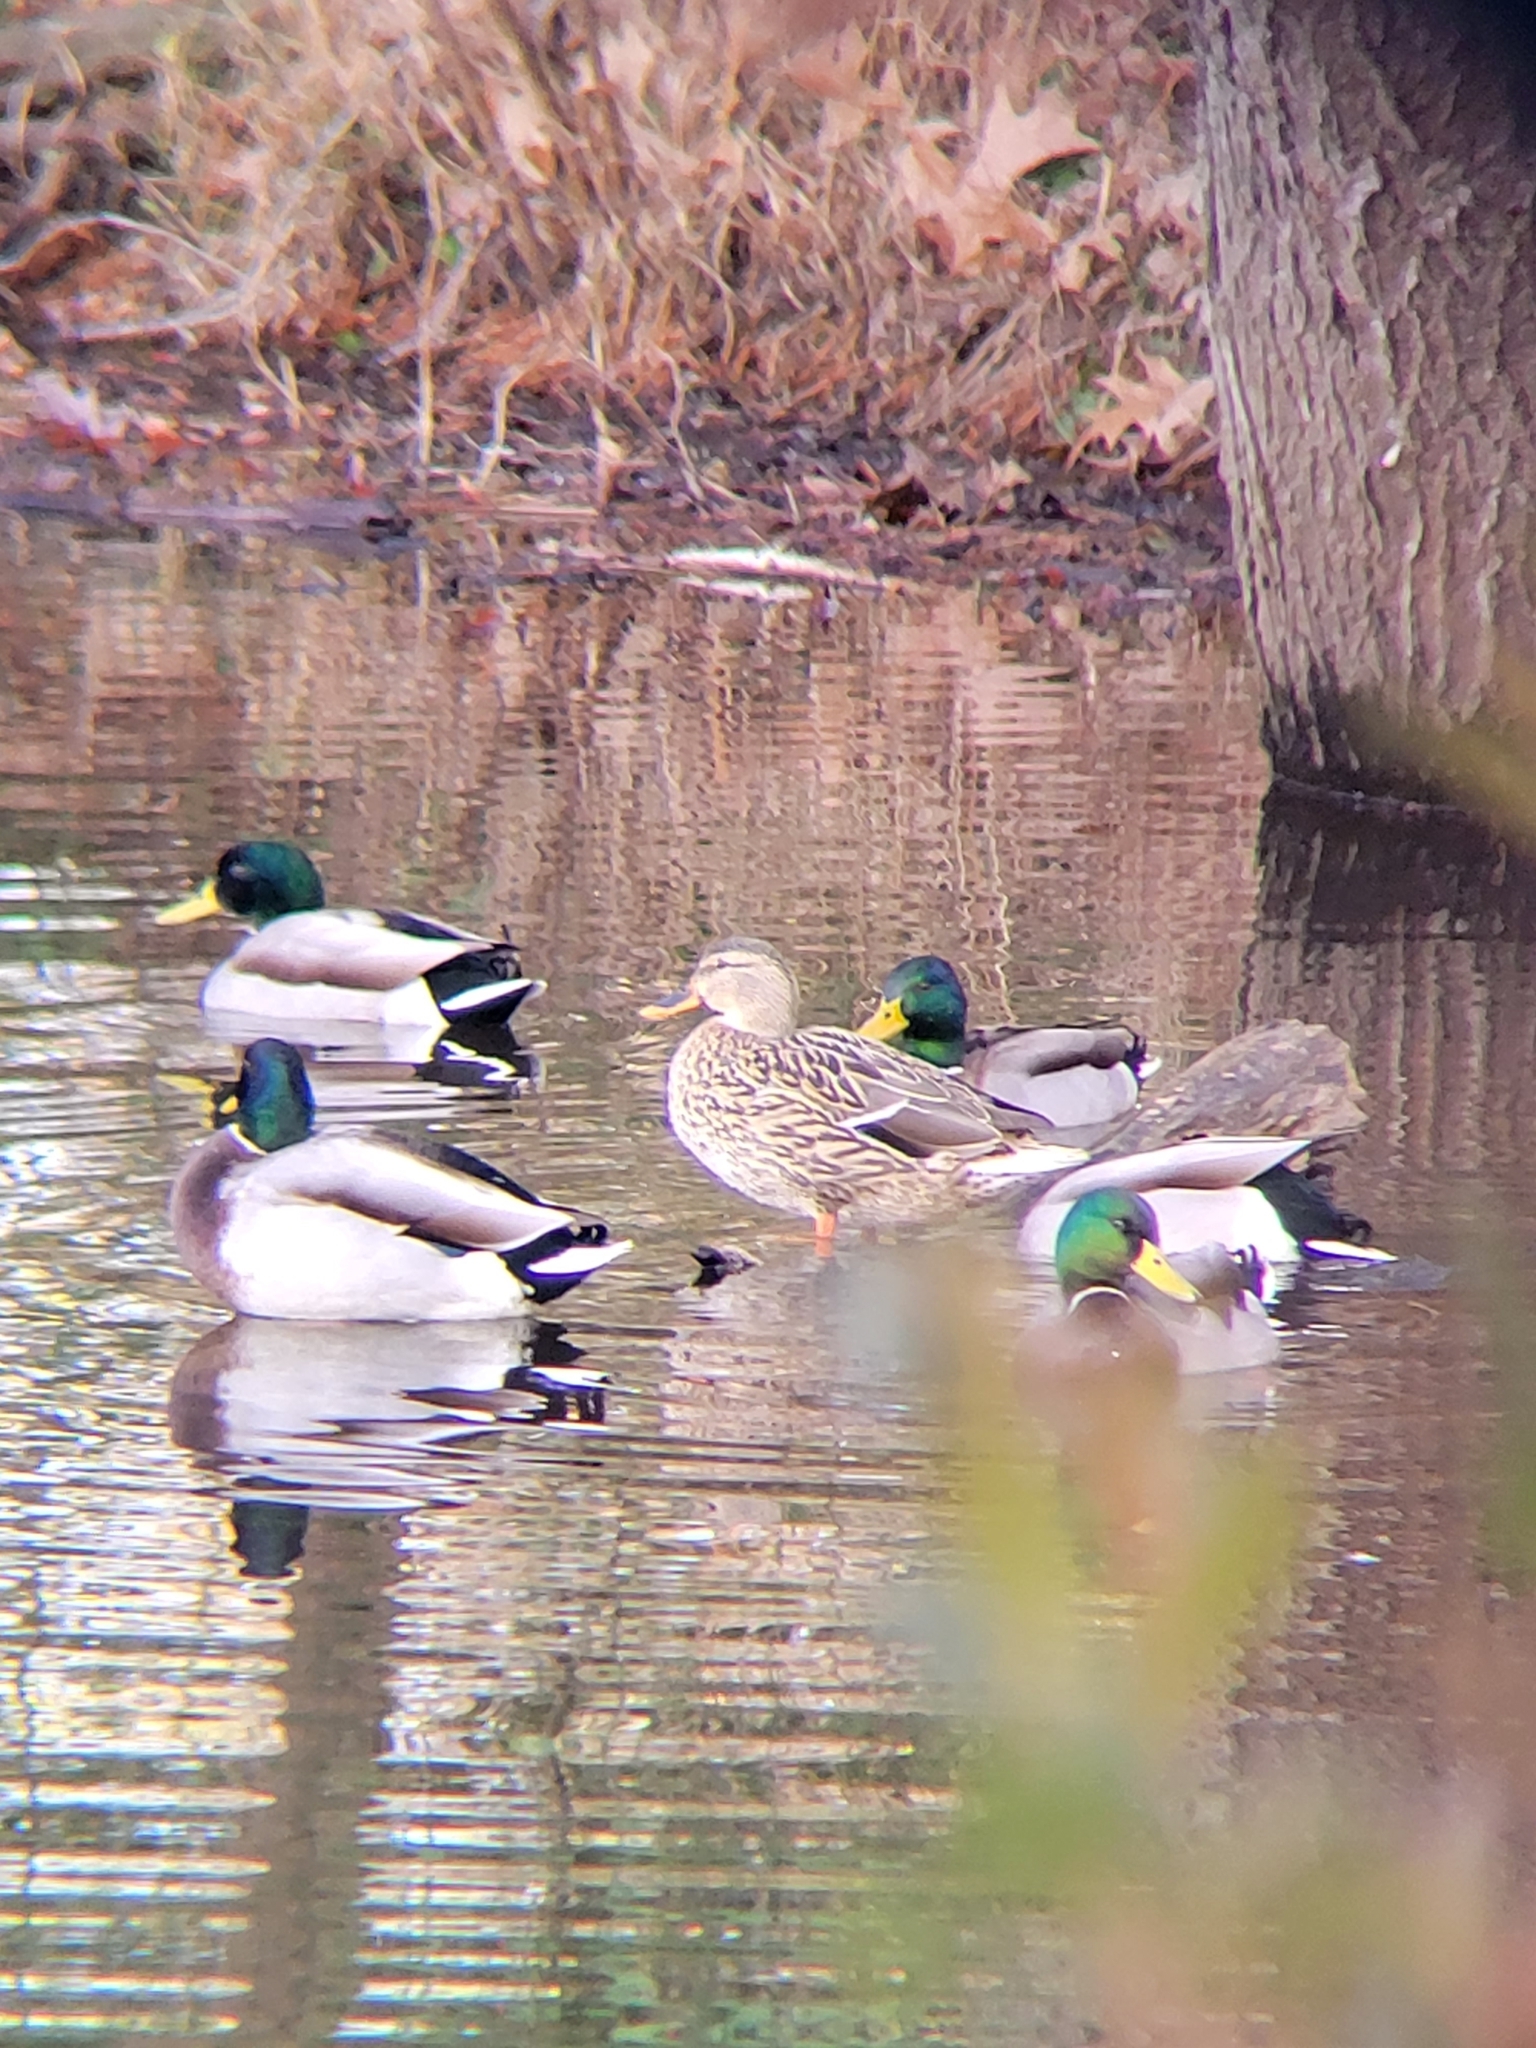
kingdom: Animalia
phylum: Chordata
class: Aves
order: Anseriformes
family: Anatidae
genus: Anas
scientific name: Anas platyrhynchos
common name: Mallard
